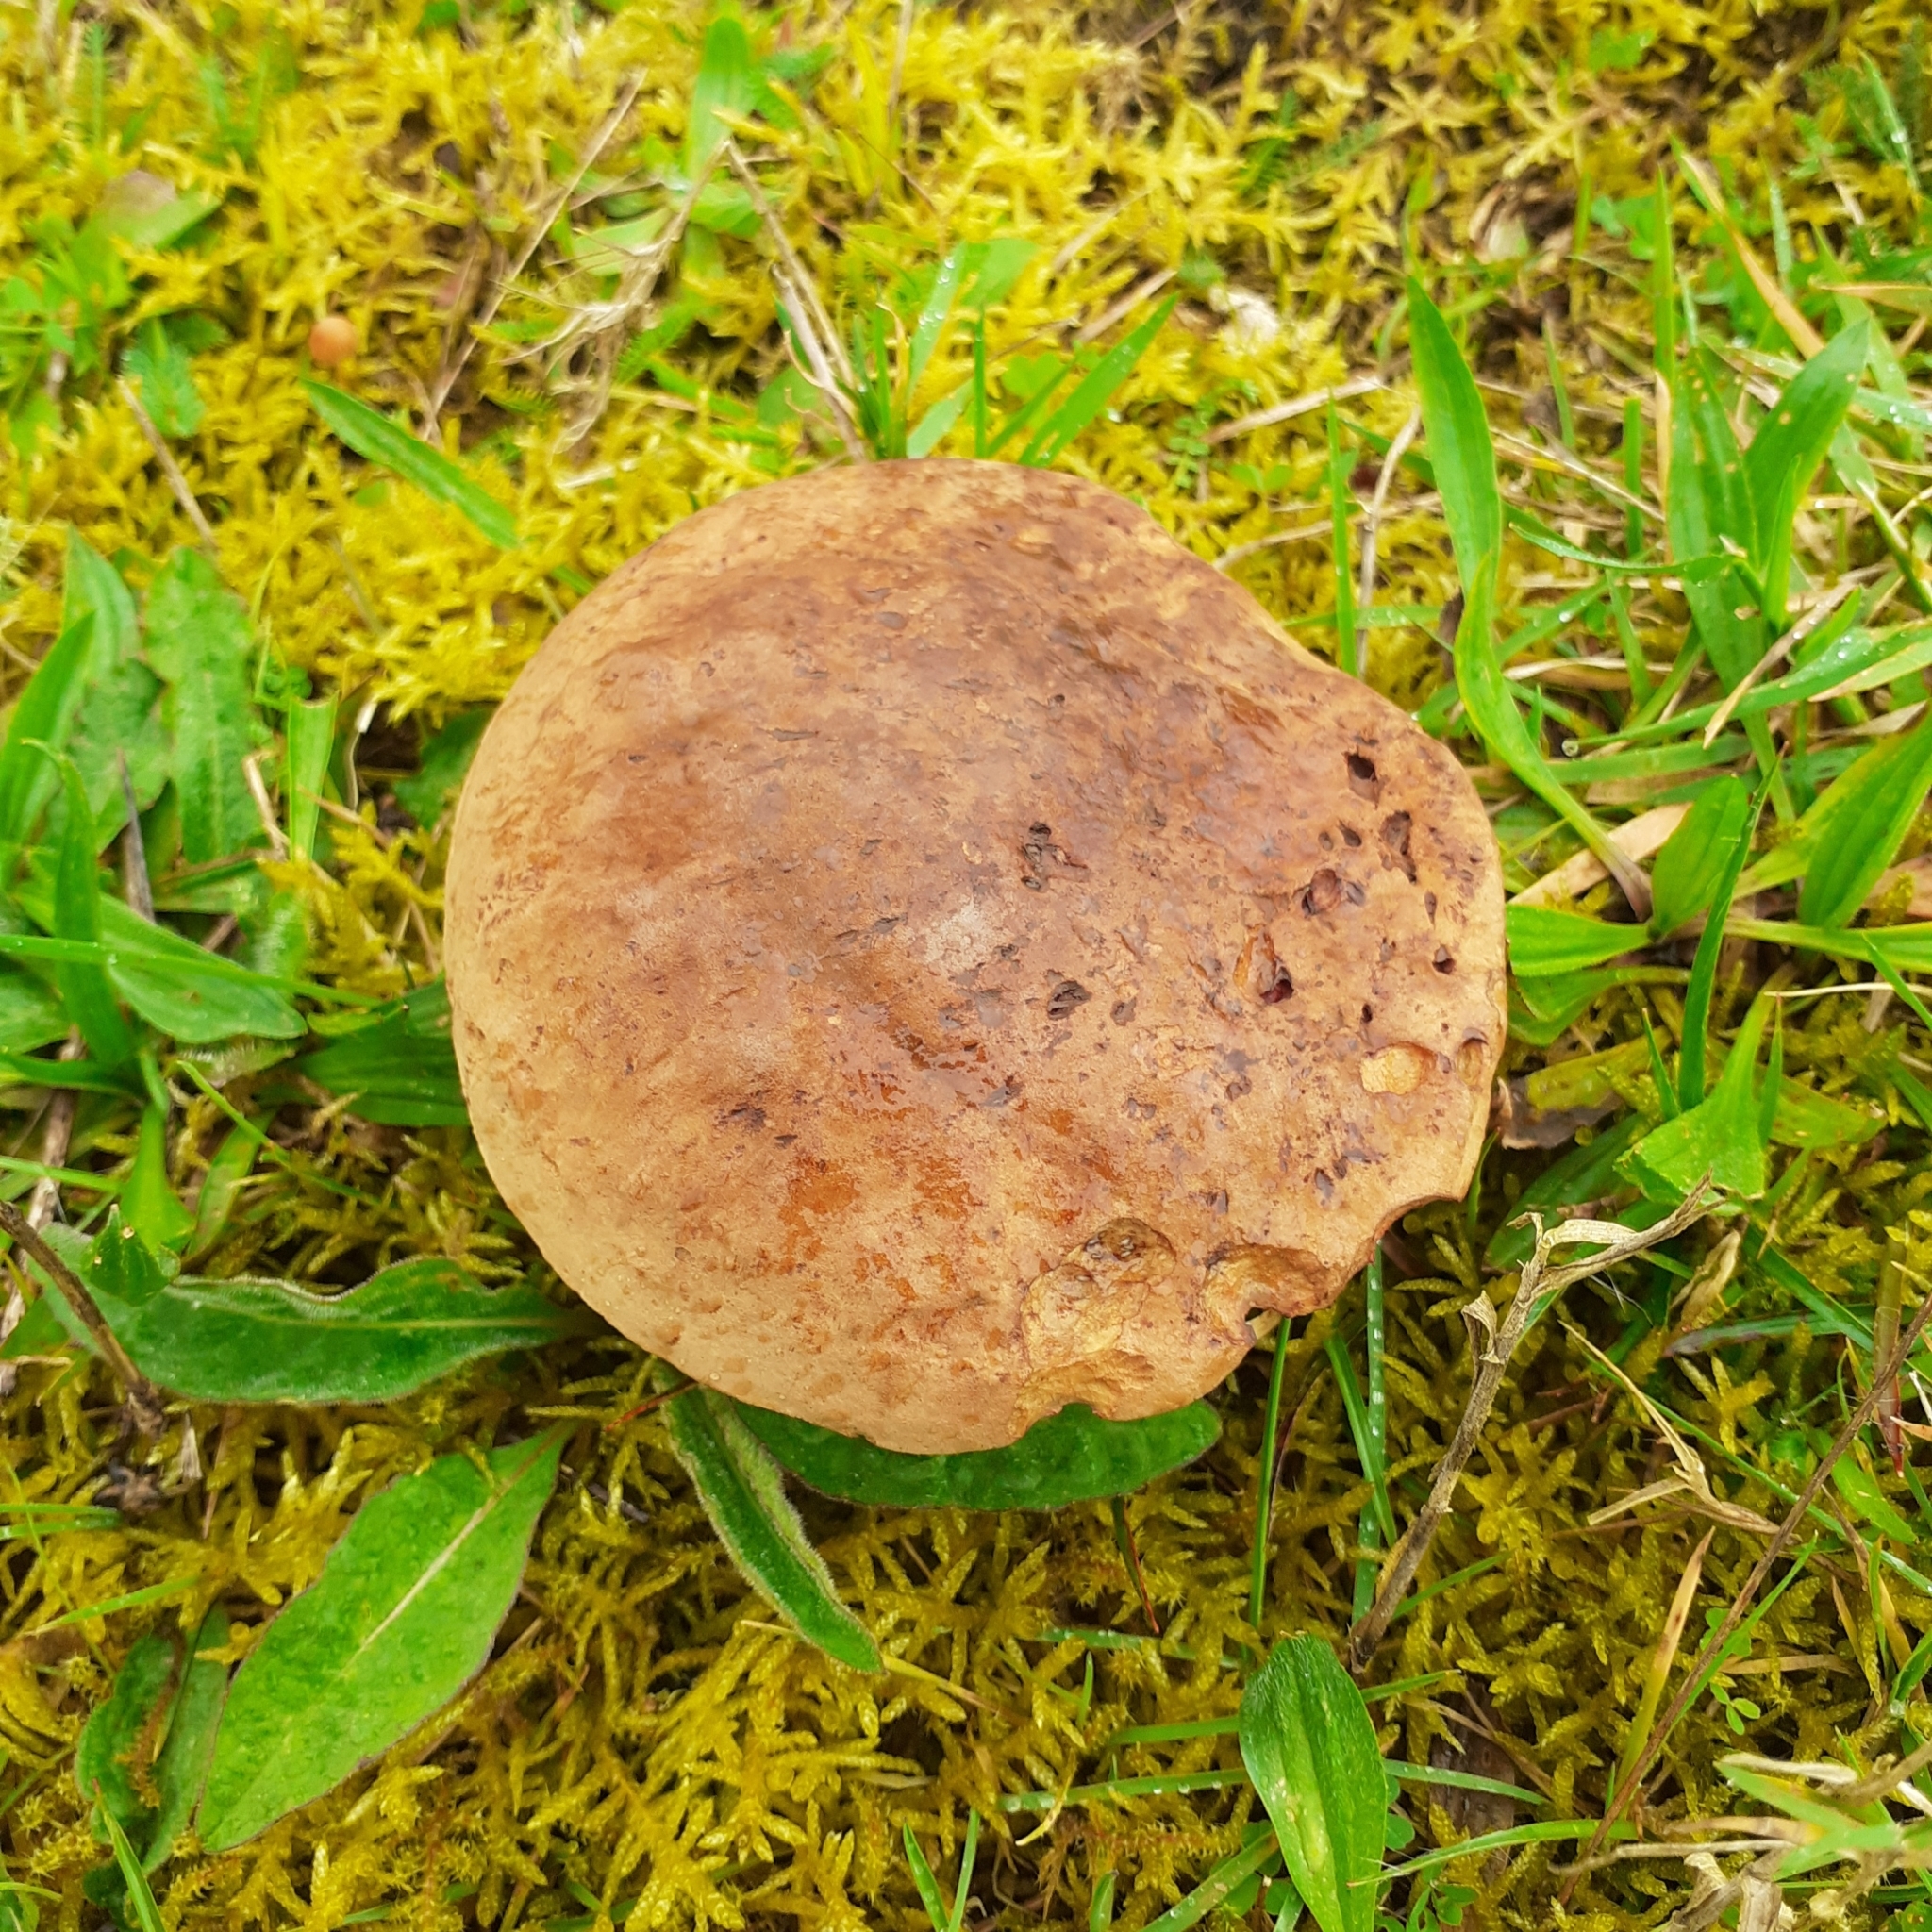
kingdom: Fungi
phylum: Basidiomycota
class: Agaricomycetes
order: Boletales
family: Boletaceae
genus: Neoboletus
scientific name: Neoboletus erythropus
